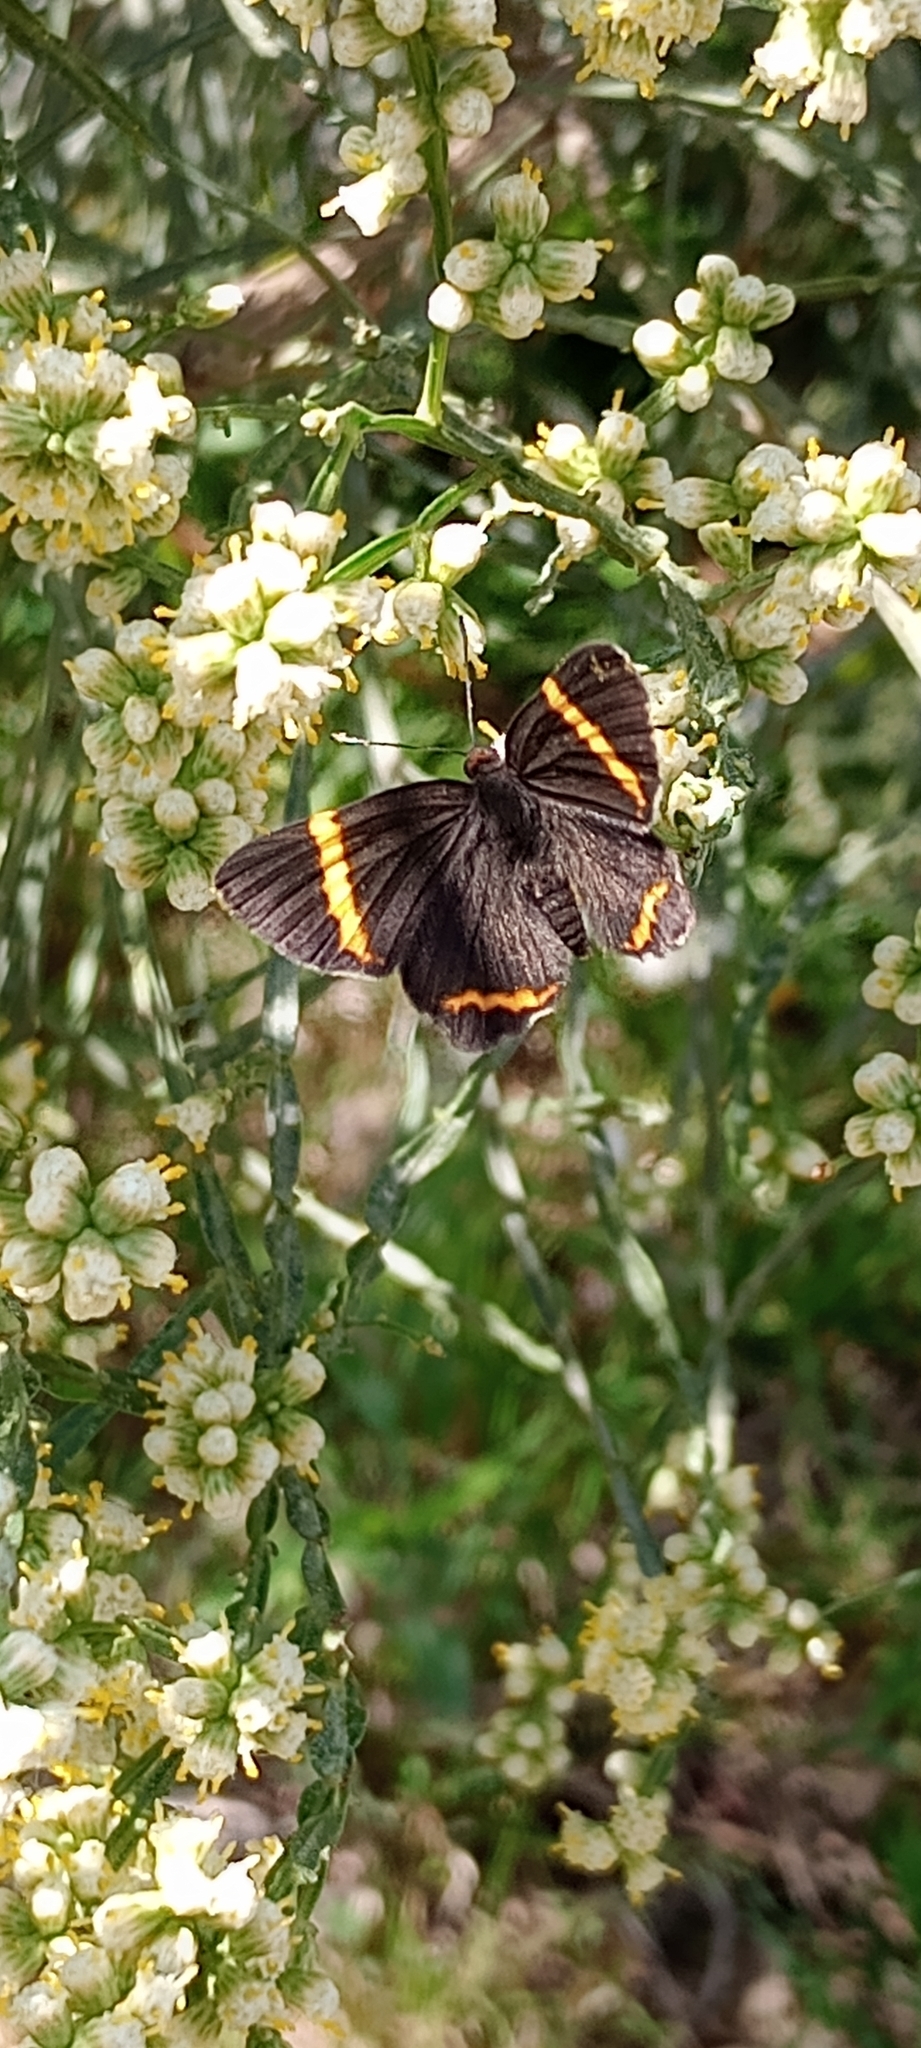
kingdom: Animalia
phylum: Arthropoda
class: Insecta
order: Lepidoptera
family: Riodinidae
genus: Riodina
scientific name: Riodina lysippoides
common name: Little dancer metalmark
